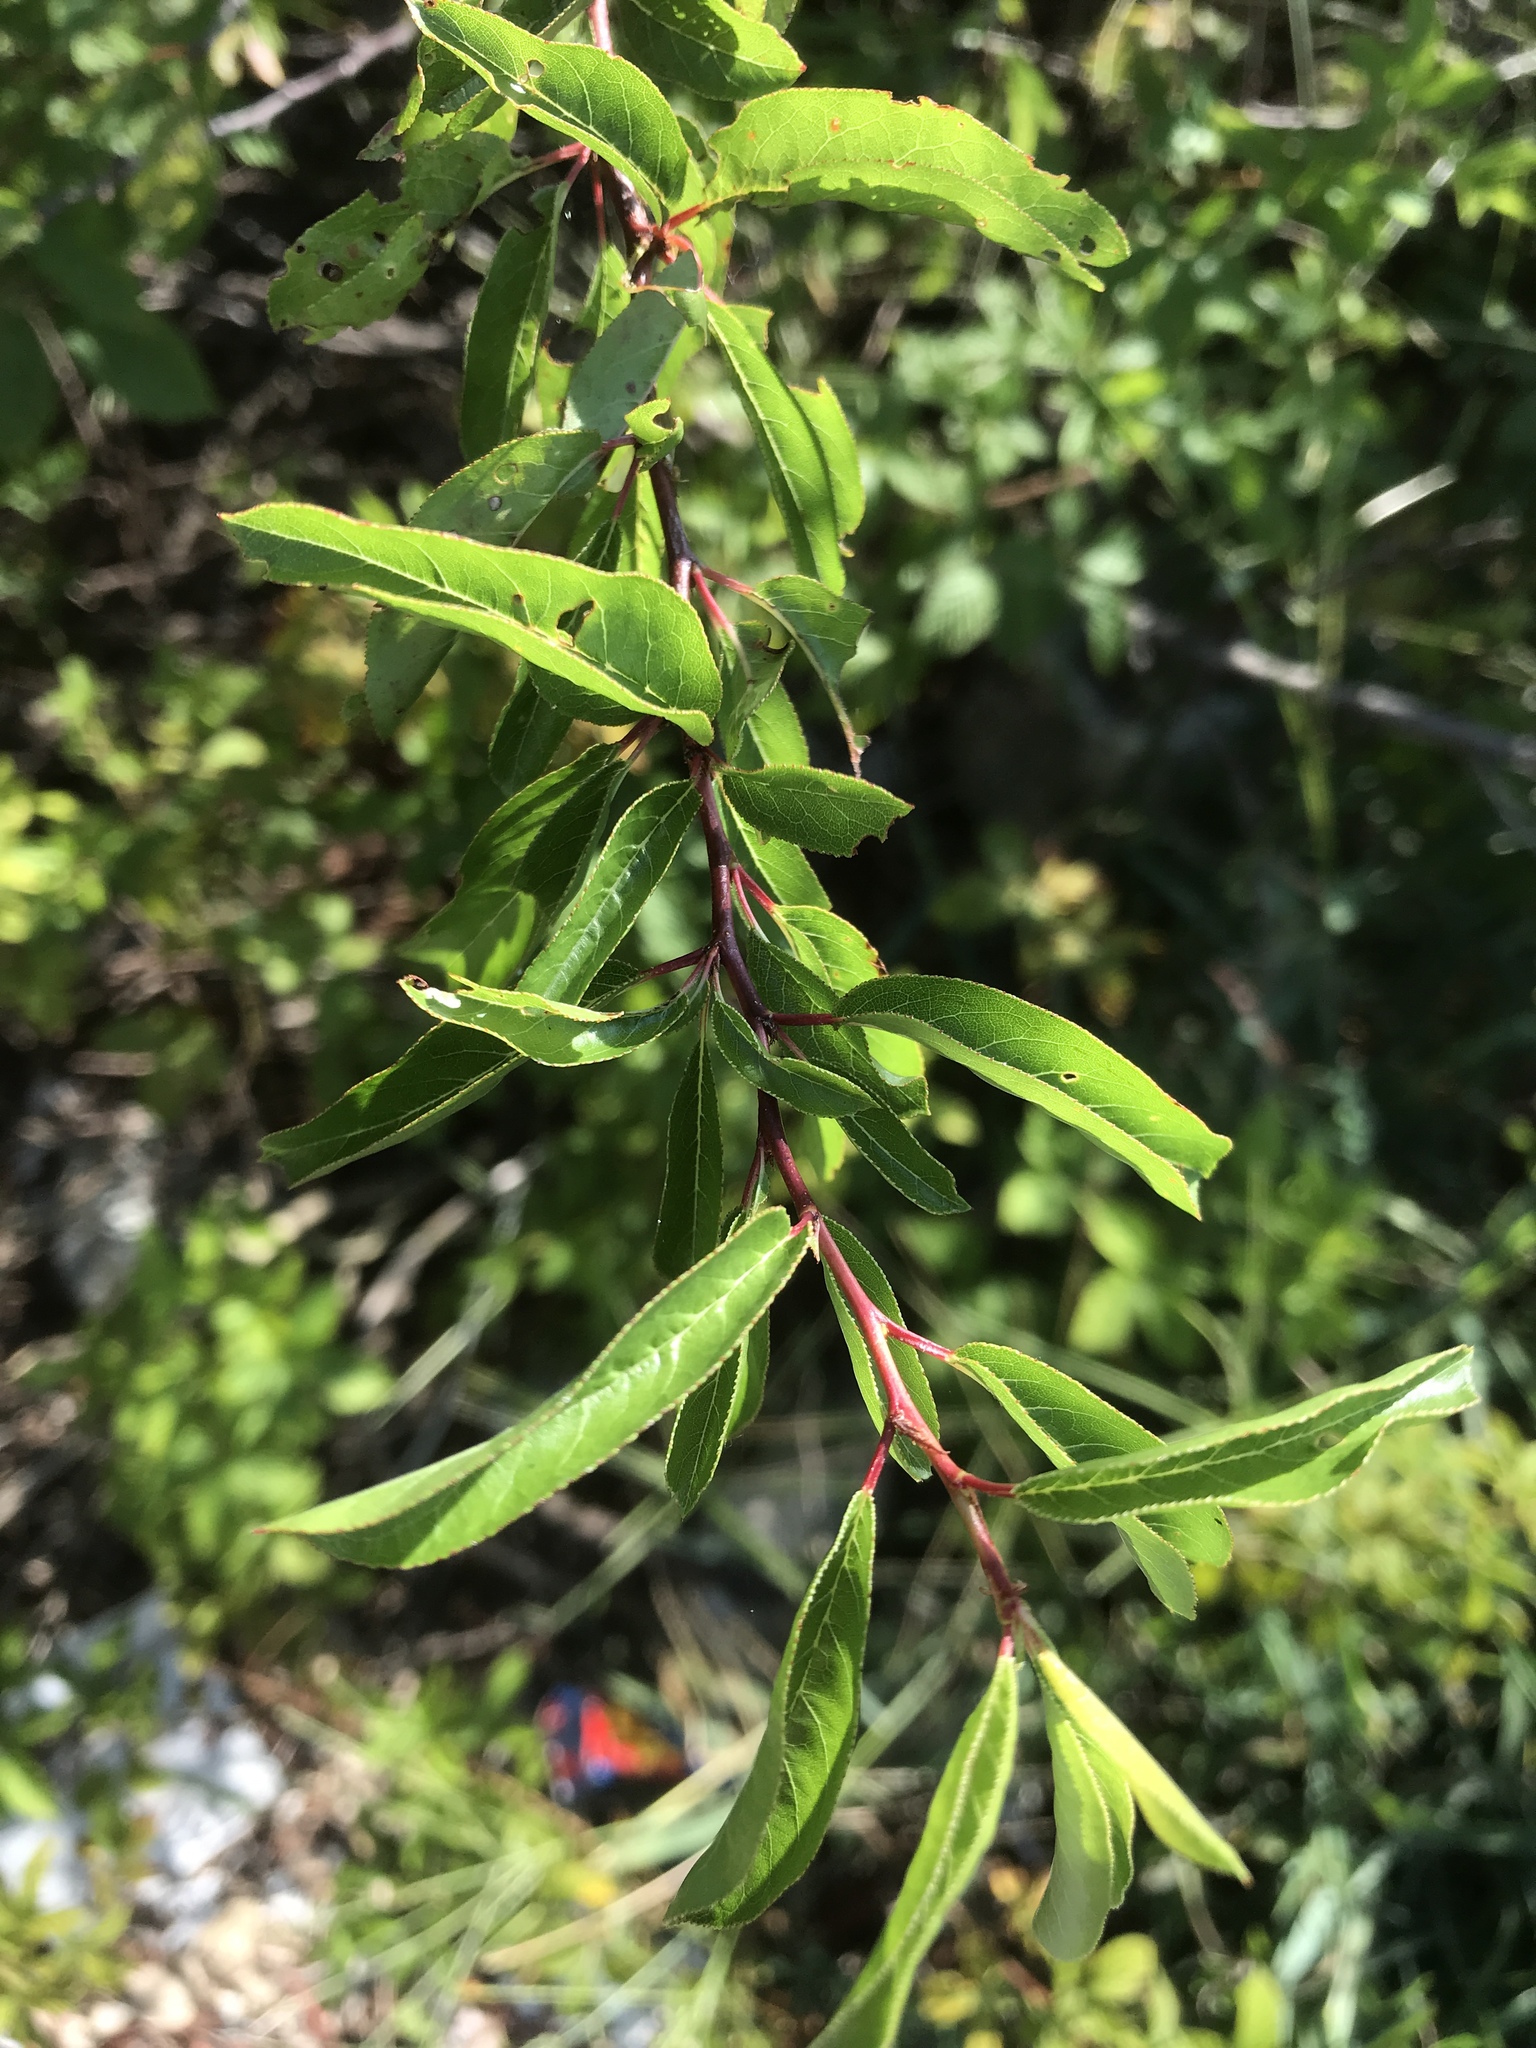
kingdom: Plantae
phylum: Tracheophyta
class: Magnoliopsida
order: Rosales
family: Rosaceae
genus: Prunus
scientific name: Prunus angustifolia
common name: Cherokee plum
